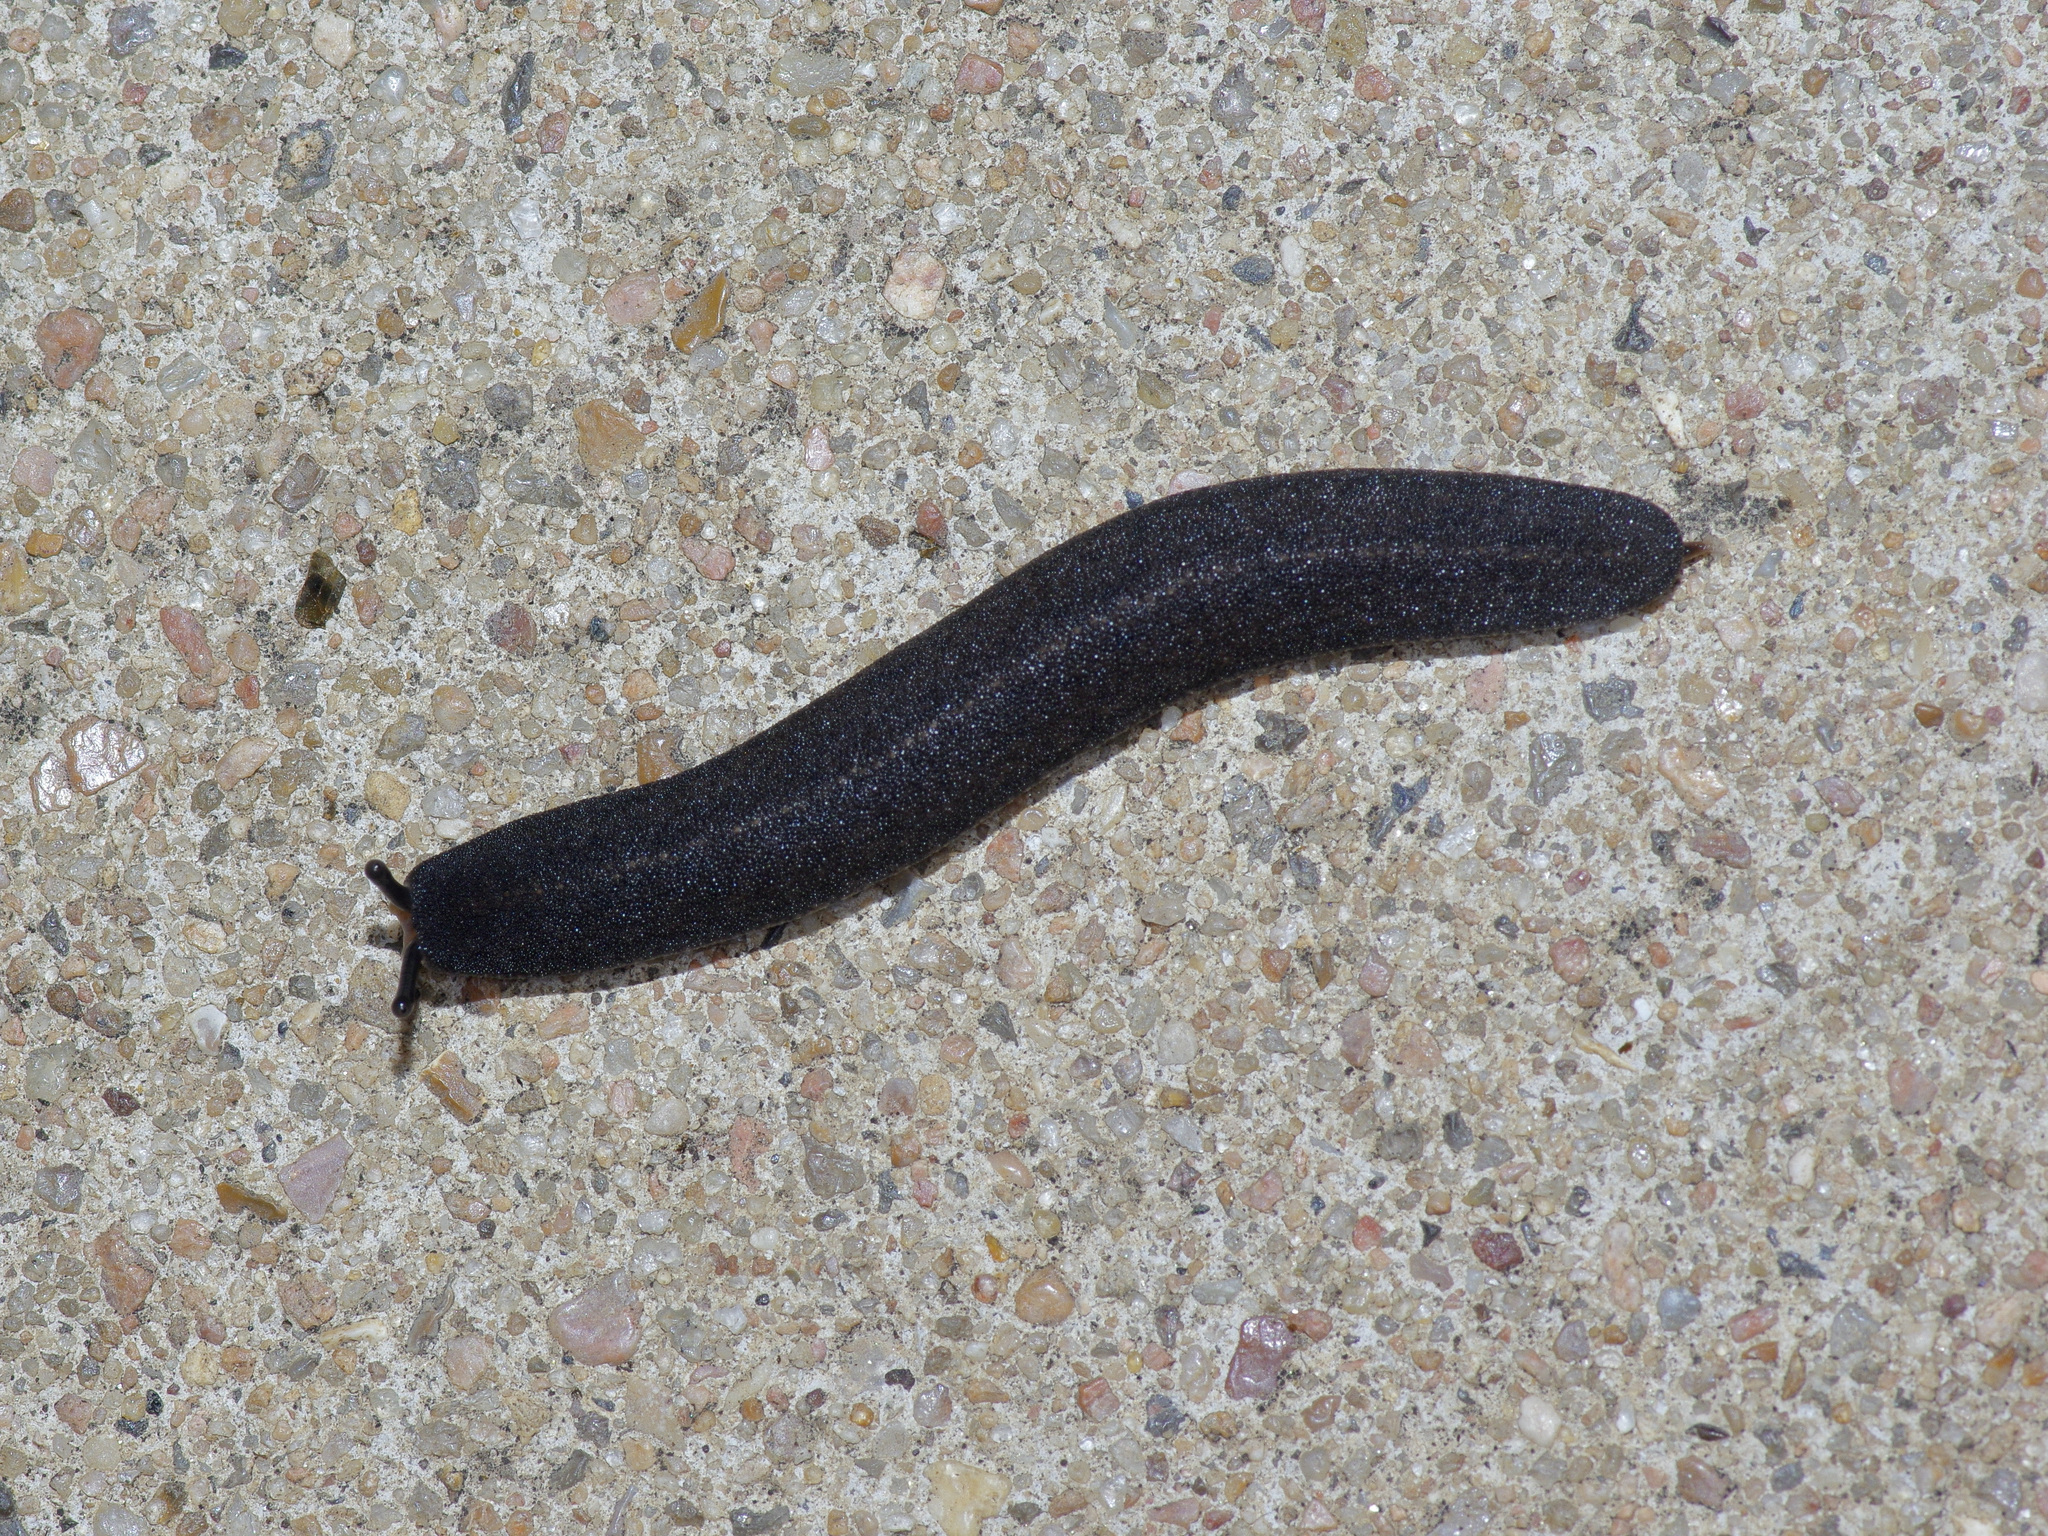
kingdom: Animalia
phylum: Mollusca
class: Gastropoda
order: Systellommatophora
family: Veronicellidae
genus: Belocaulus
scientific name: Belocaulus angustipes
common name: Black velvet leatherleaf slug
